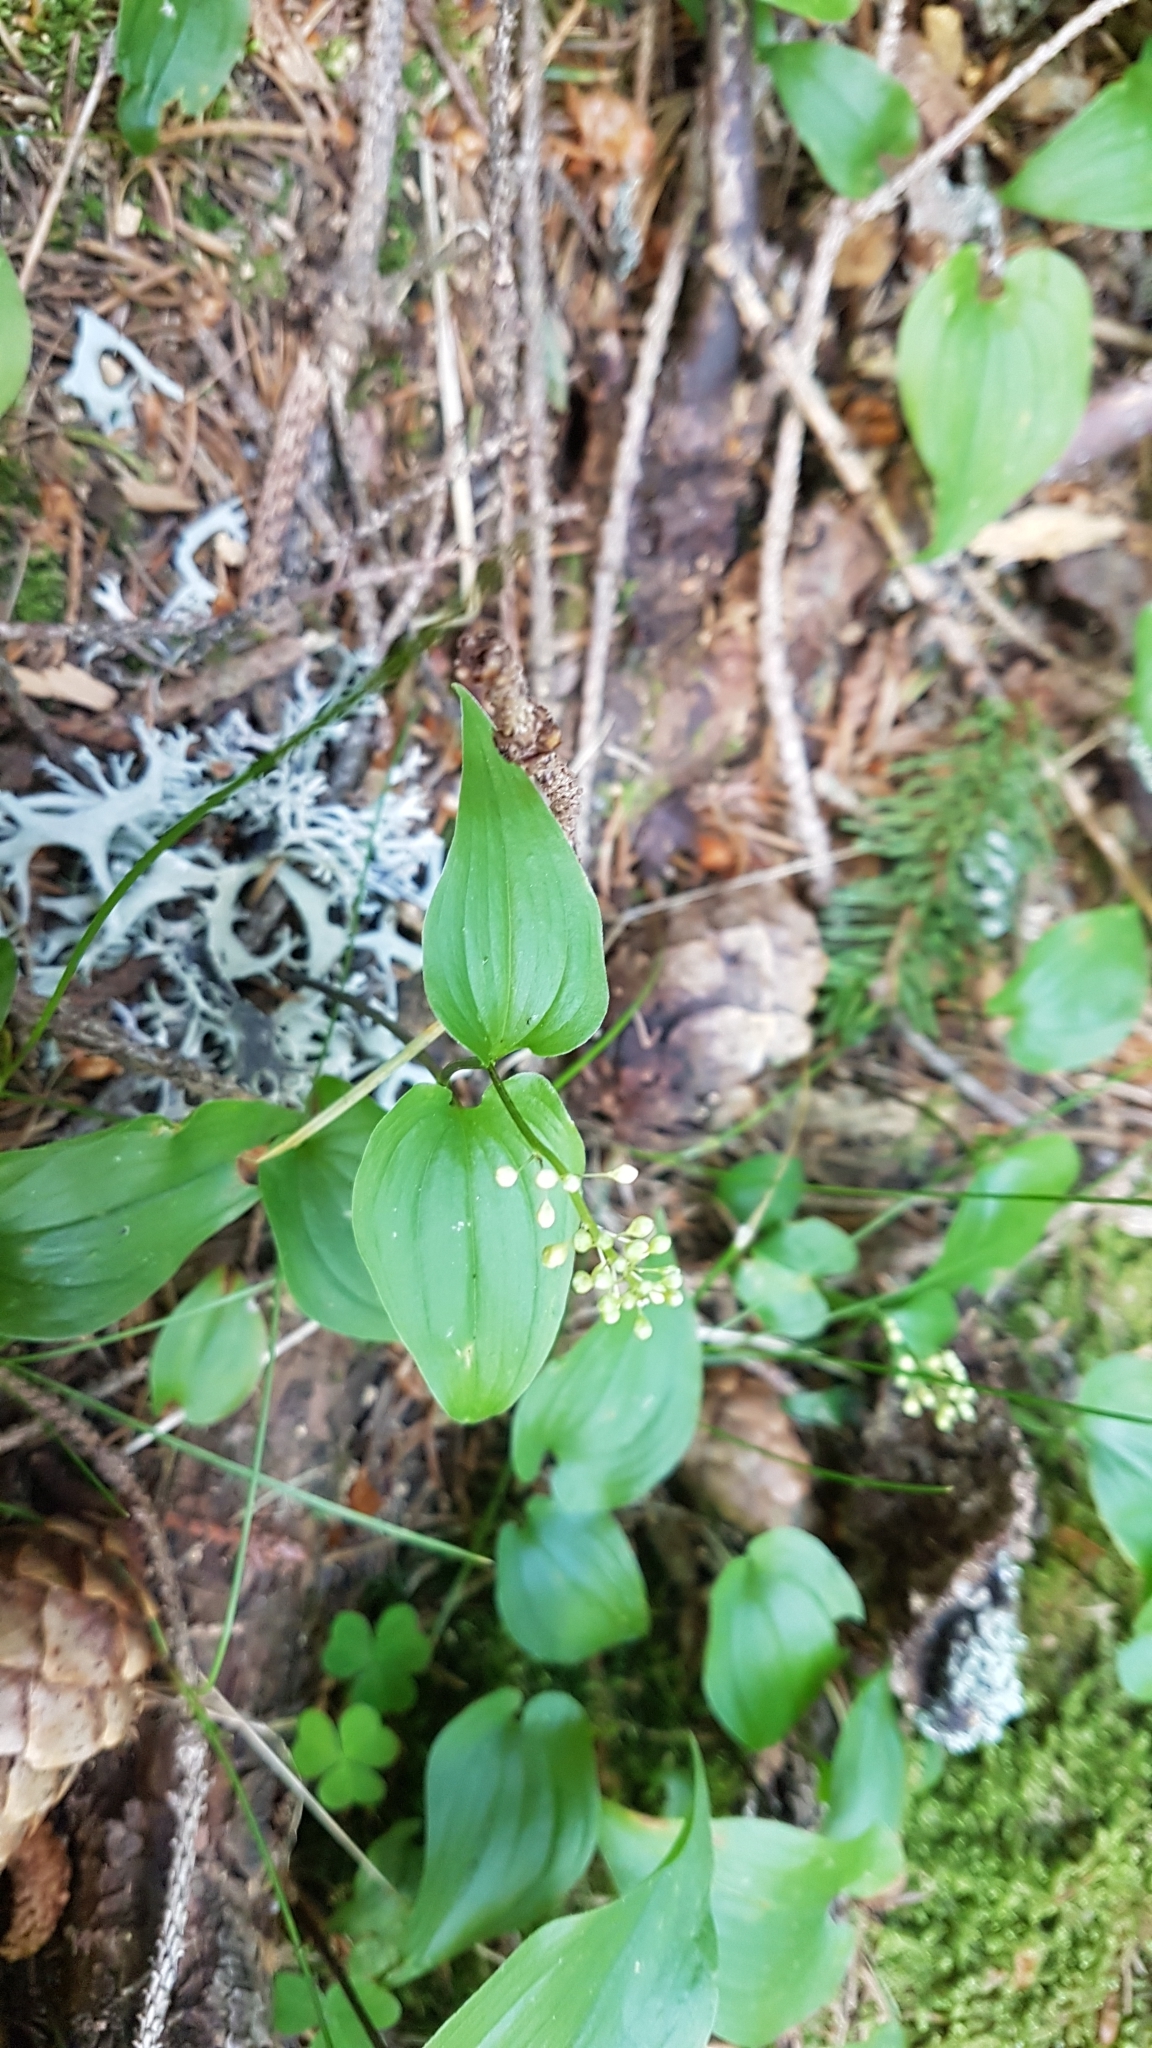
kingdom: Plantae
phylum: Tracheophyta
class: Liliopsida
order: Asparagales
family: Asparagaceae
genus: Maianthemum
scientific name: Maianthemum bifolium
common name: May lily
